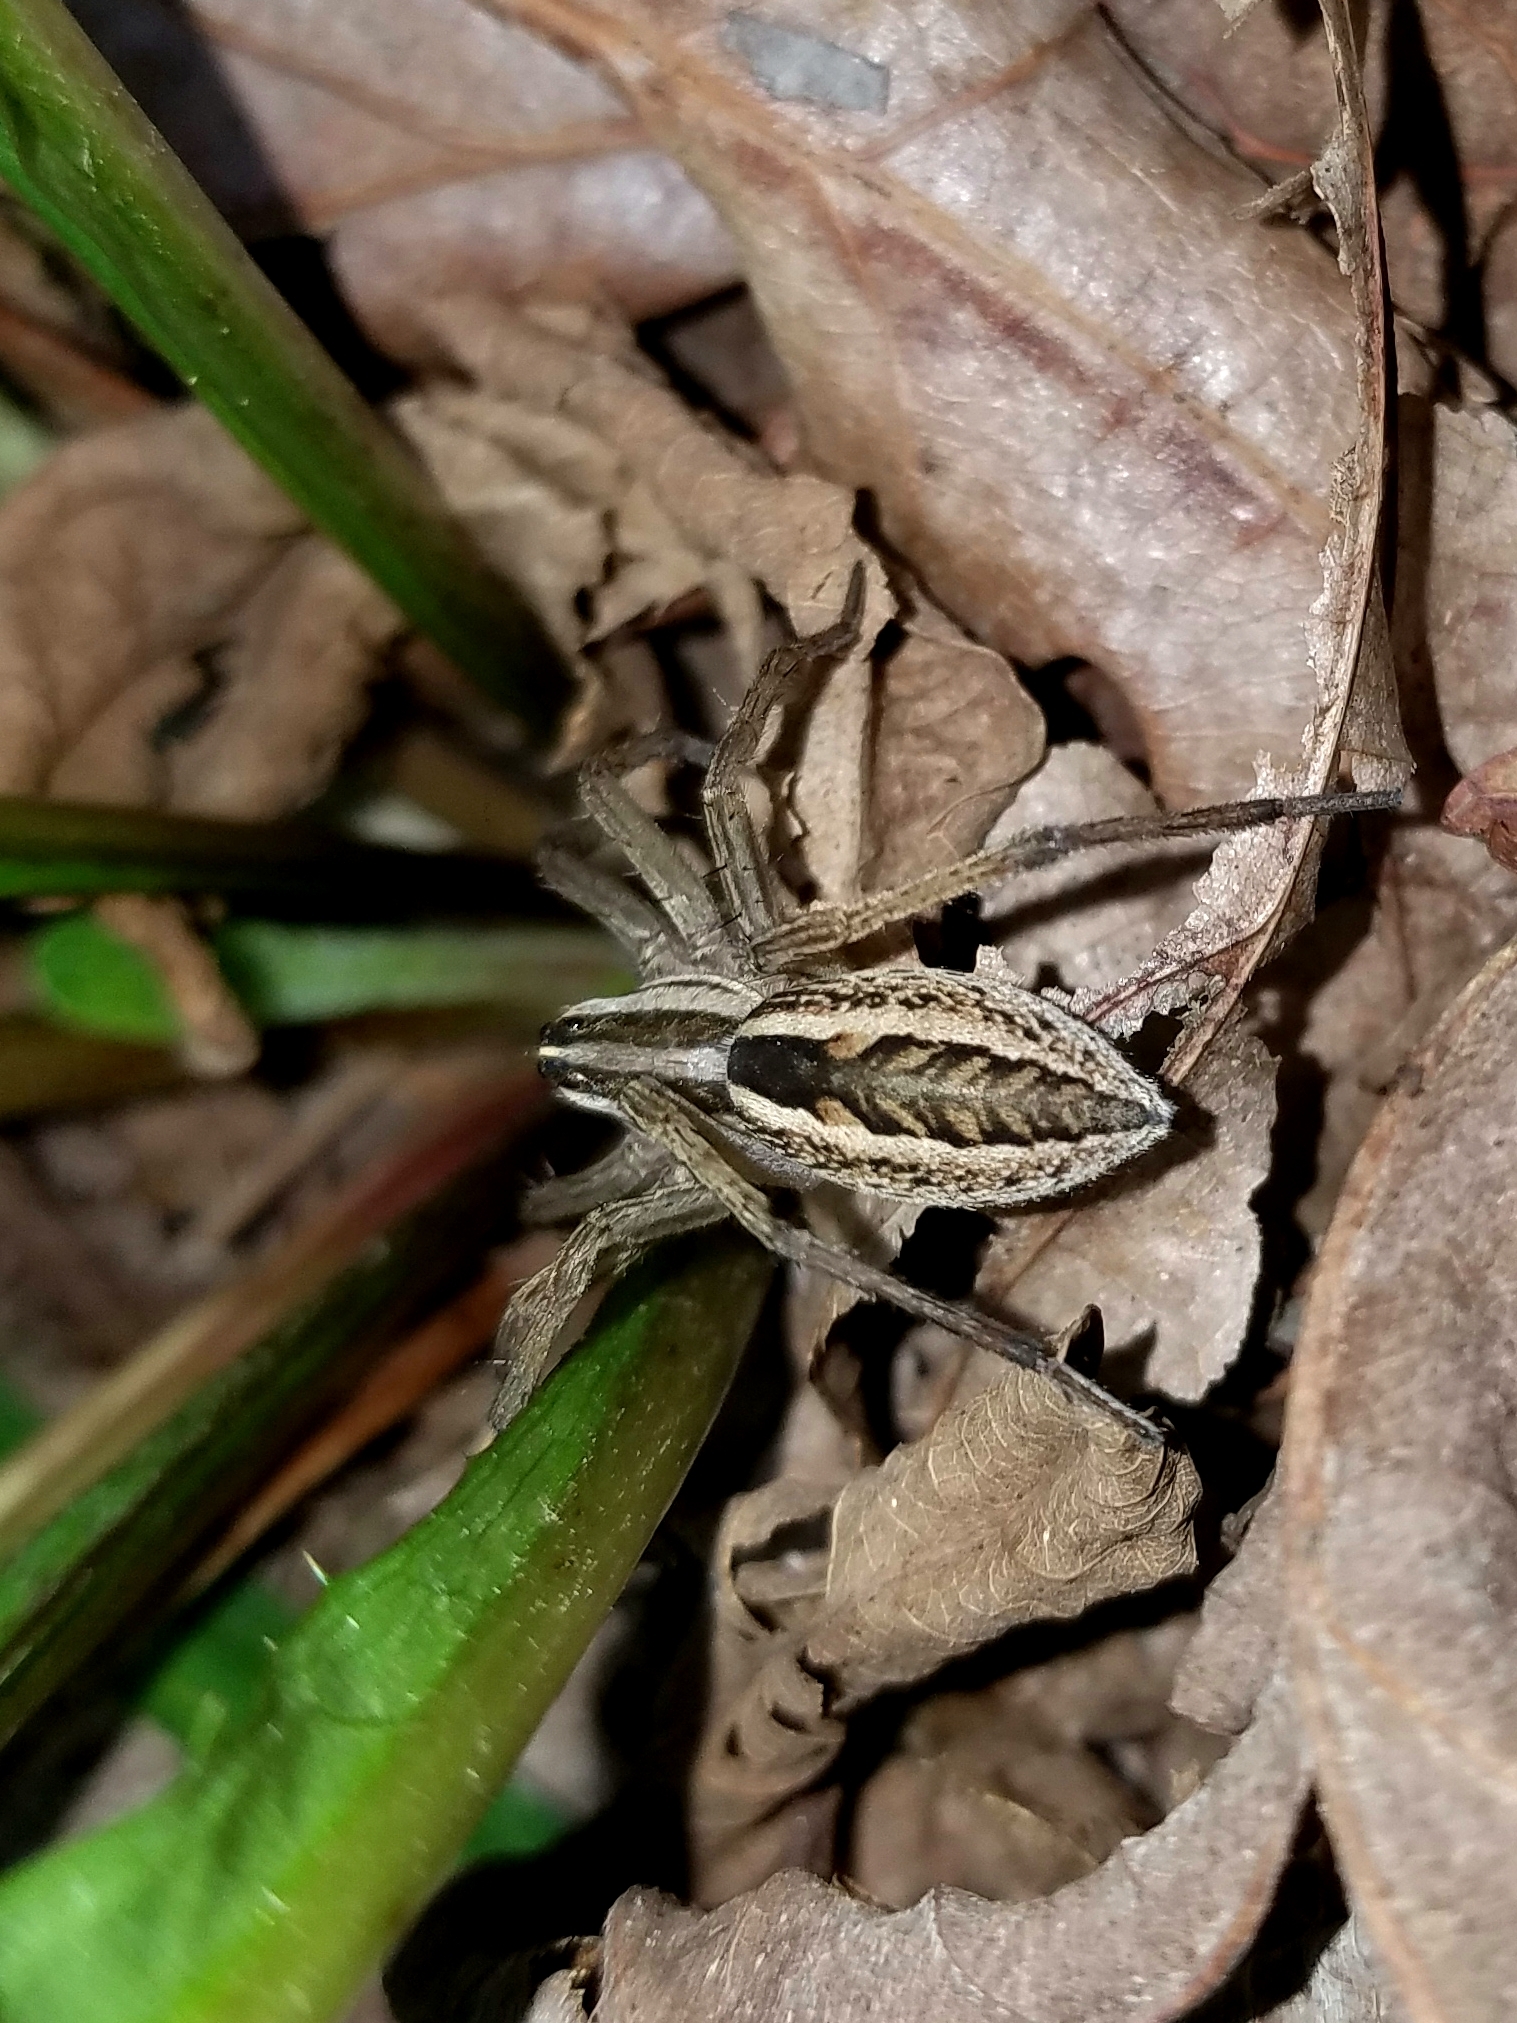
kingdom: Animalia
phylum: Arthropoda
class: Arachnida
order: Araneae
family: Lycosidae
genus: Rabidosa
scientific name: Rabidosa rabida
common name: Rabid wolf spider
